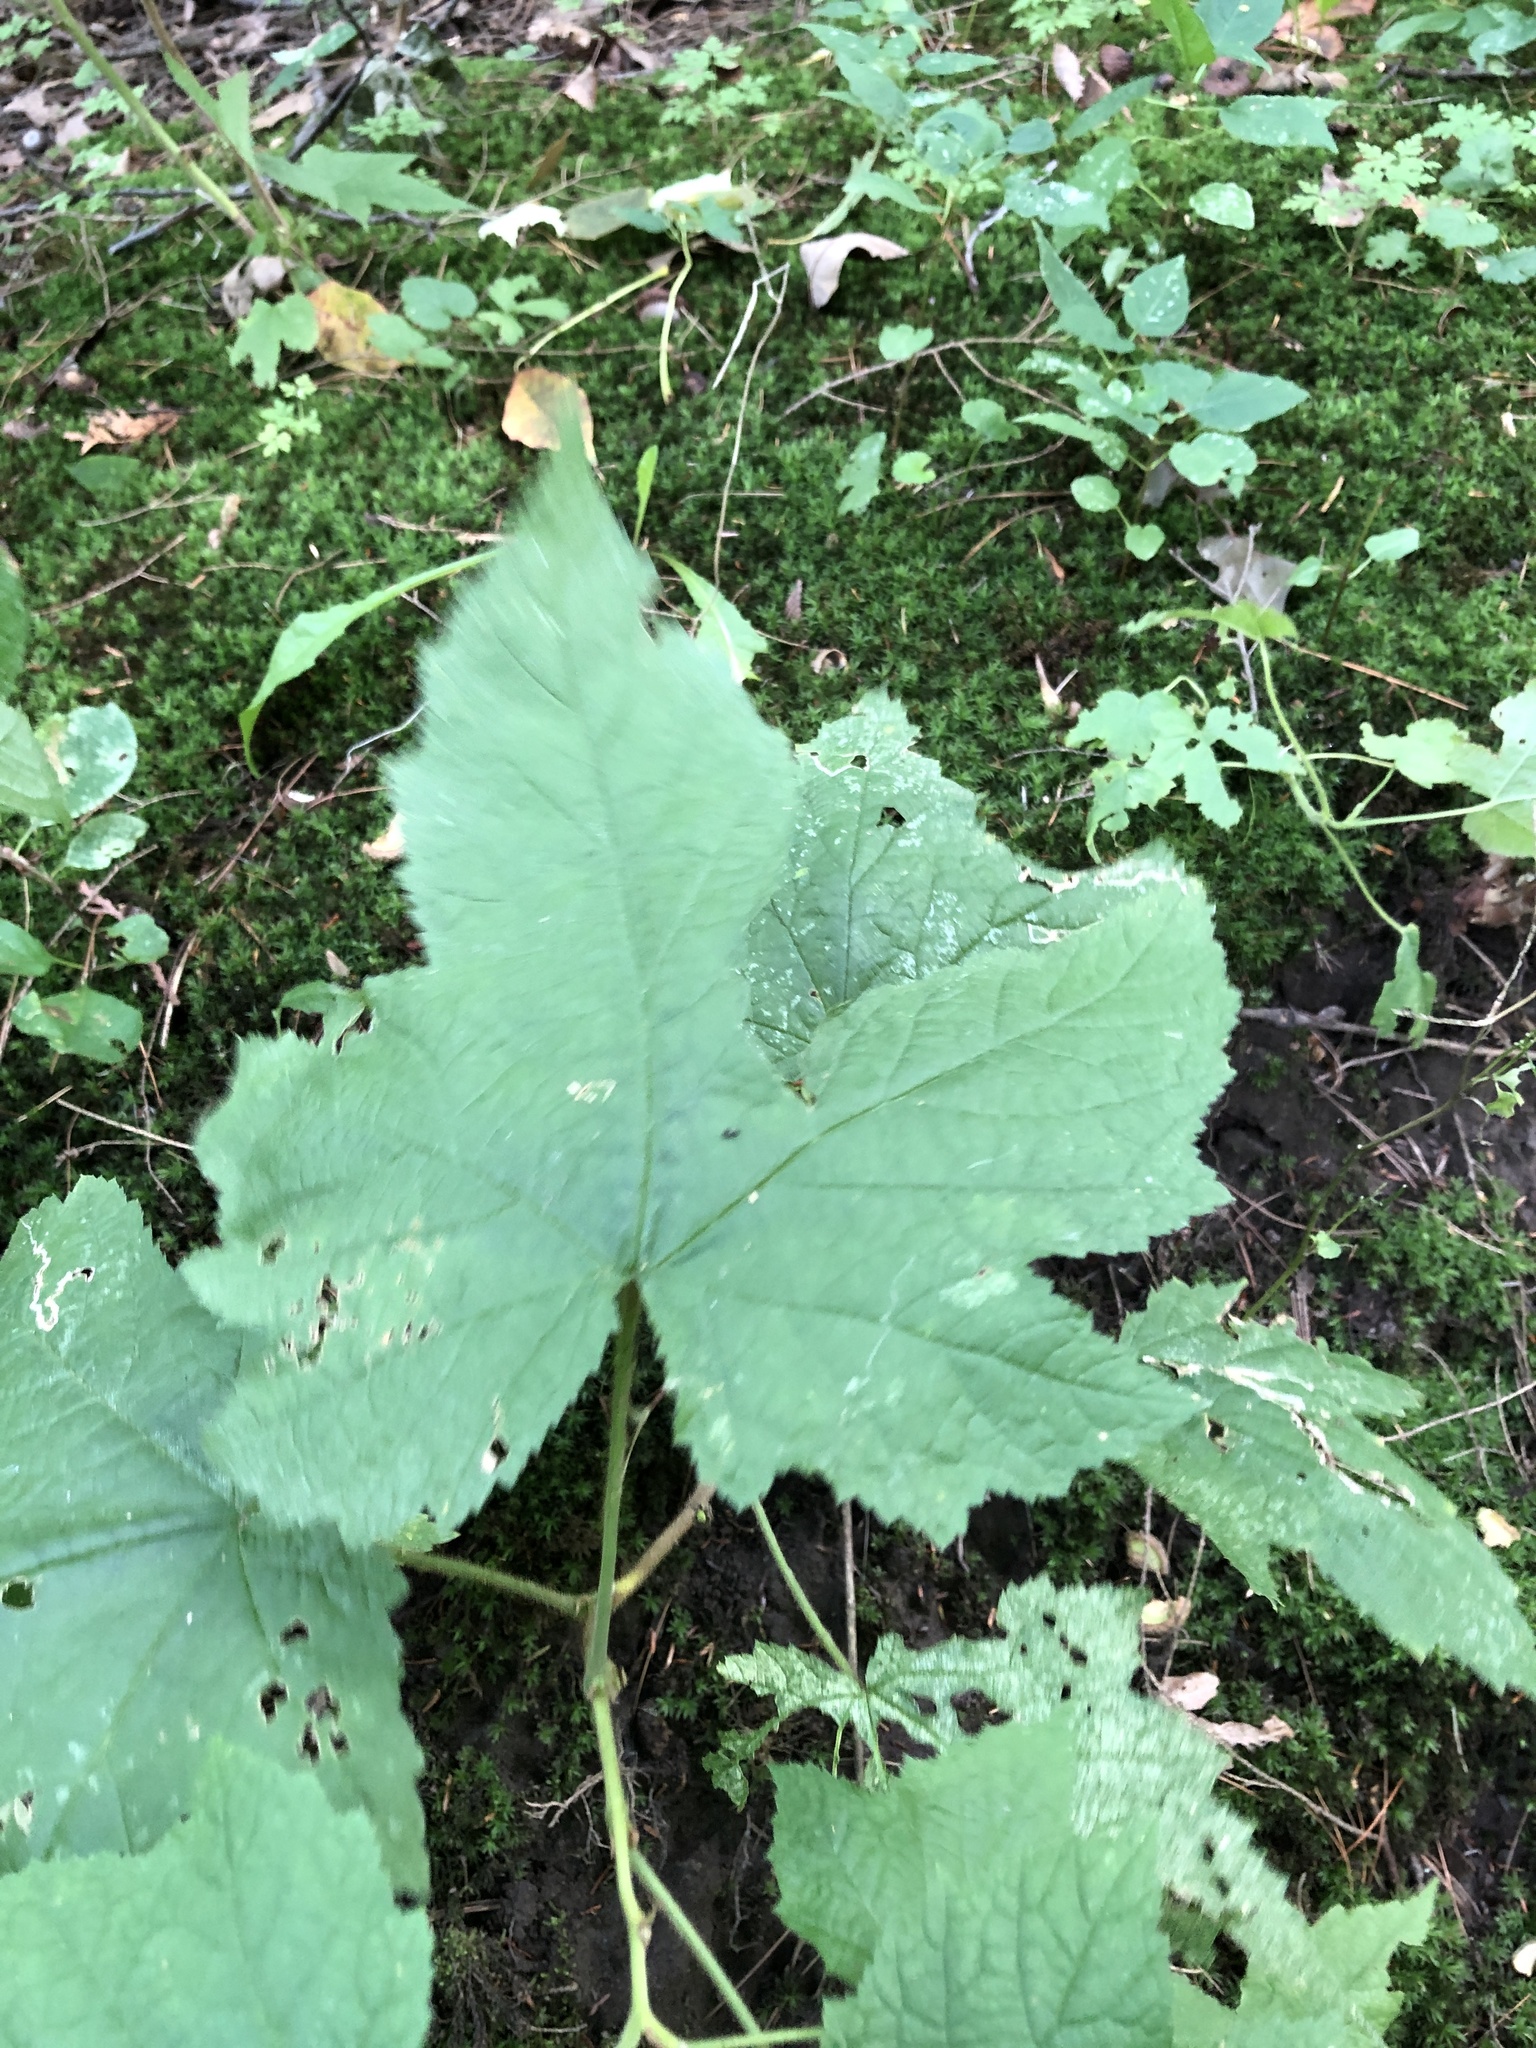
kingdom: Plantae
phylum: Tracheophyta
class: Magnoliopsida
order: Rosales
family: Rosaceae
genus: Rubus
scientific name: Rubus odoratus
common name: Purple-flowered raspberry
